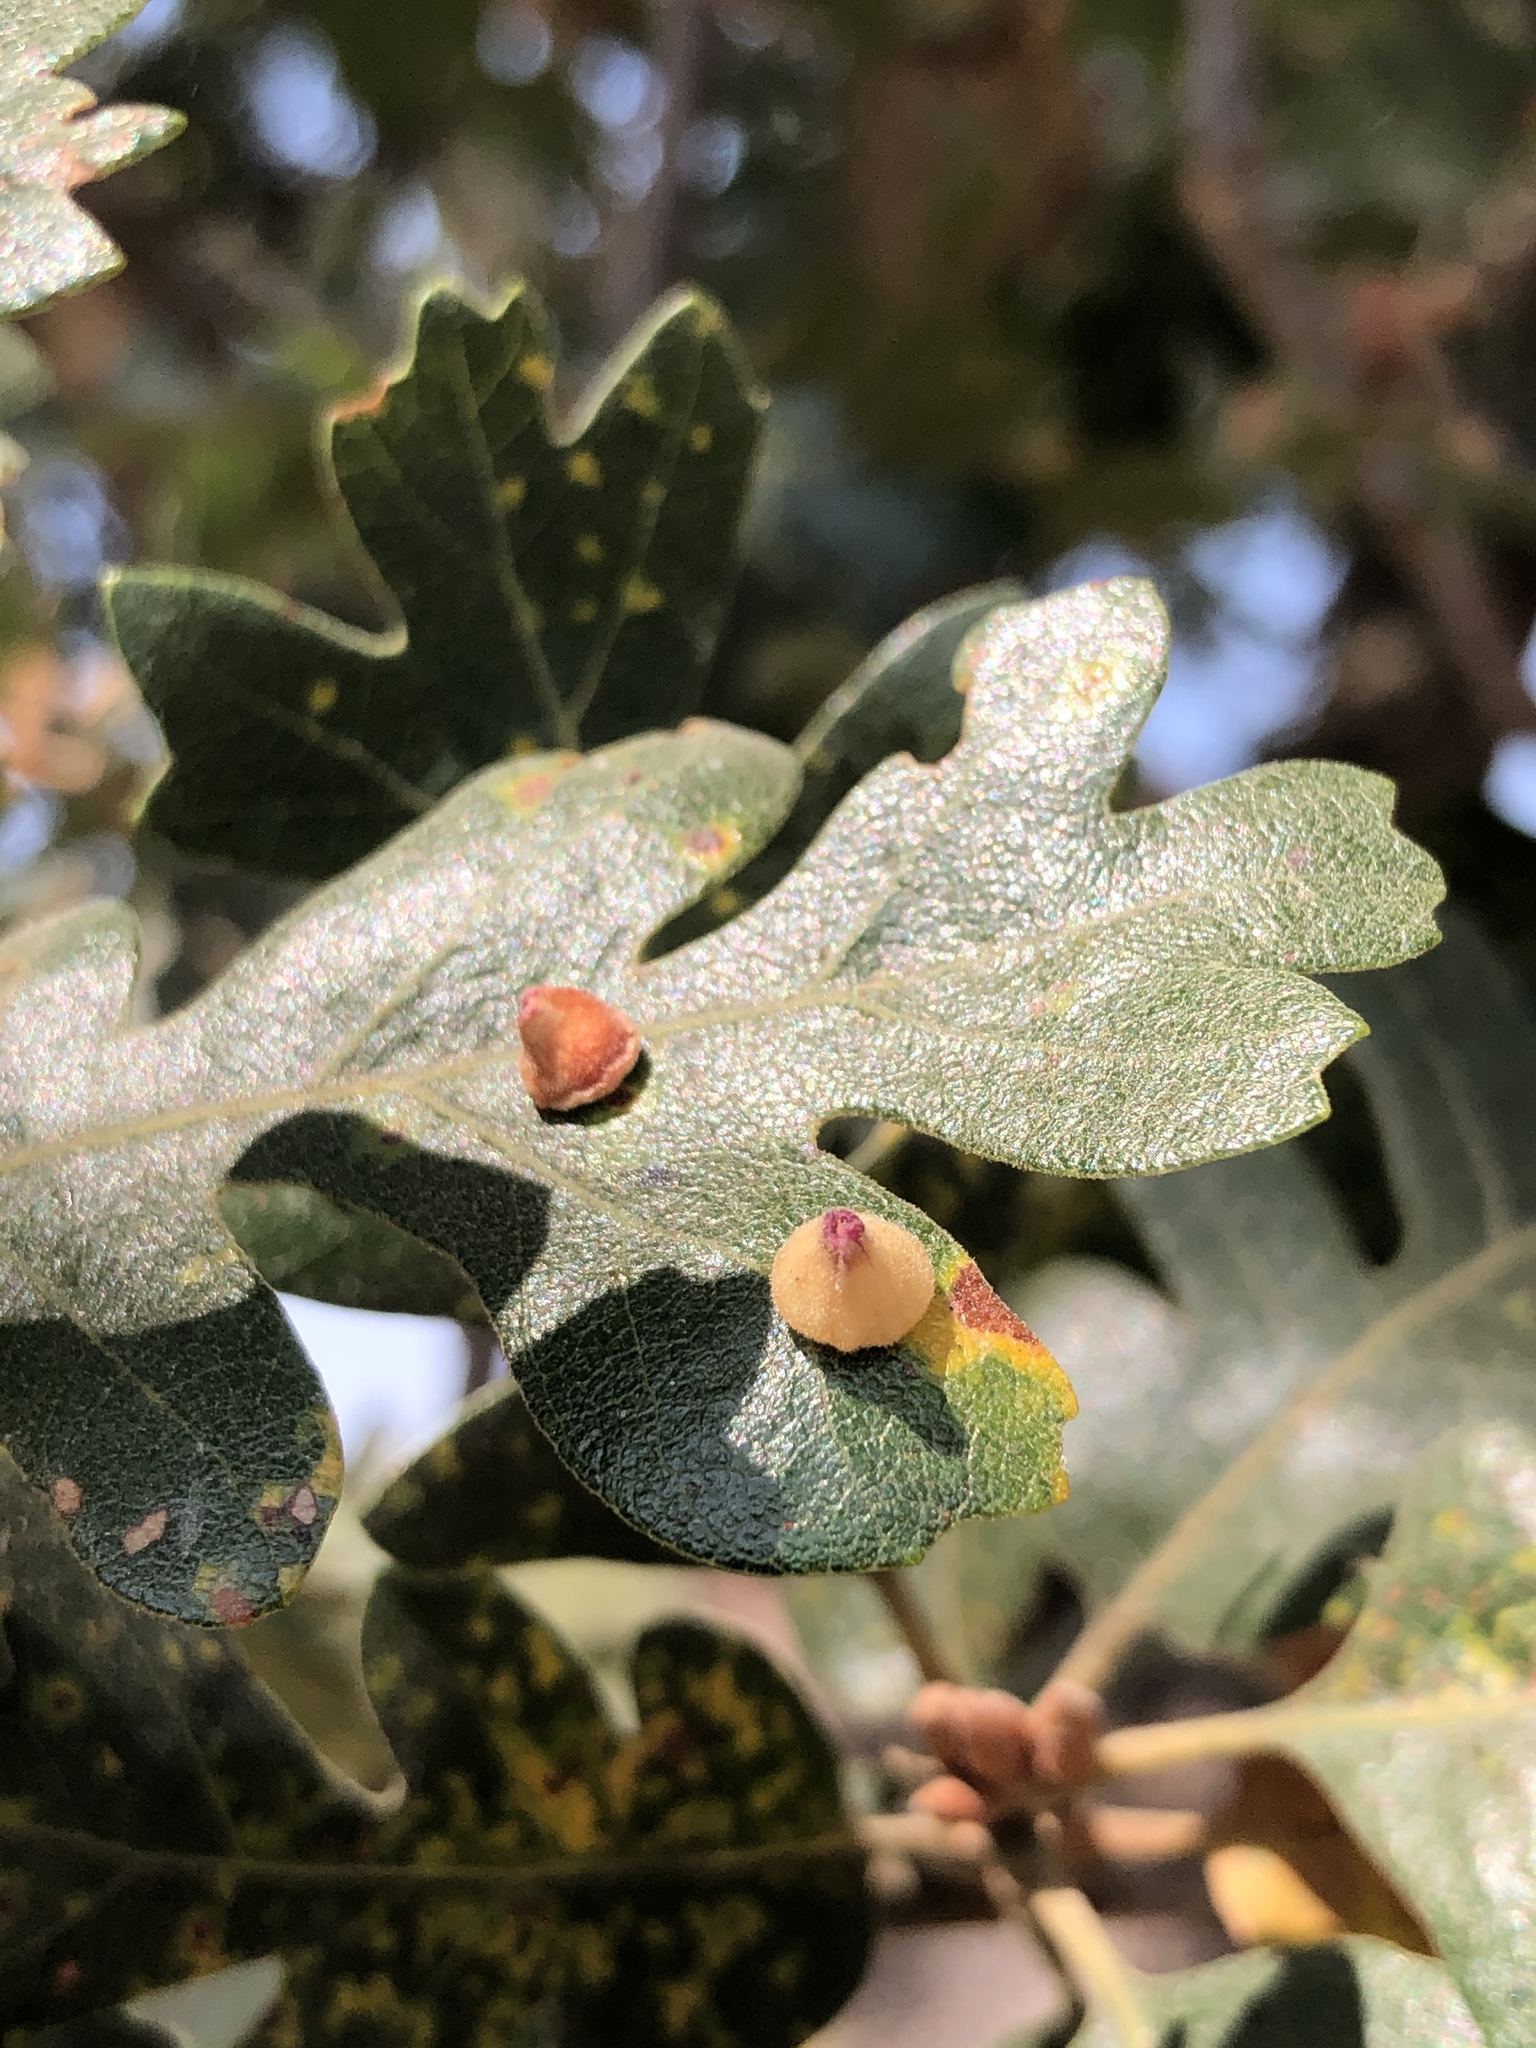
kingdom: Animalia
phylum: Arthropoda
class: Insecta
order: Hymenoptera
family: Cynipidae
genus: Andricus
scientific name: Andricus
